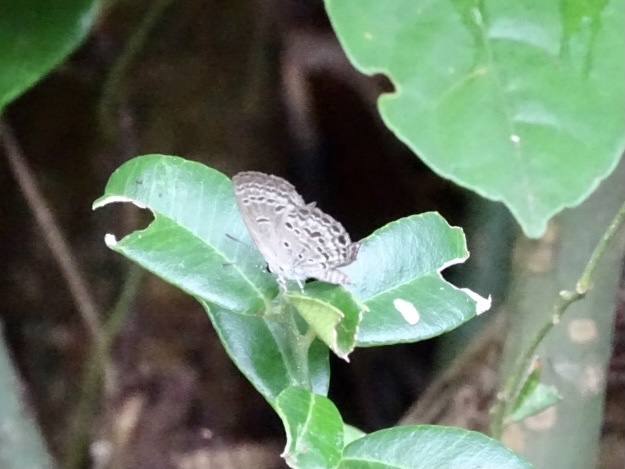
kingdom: Animalia
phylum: Arthropoda
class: Insecta
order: Lepidoptera
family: Lycaenidae
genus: Chilades
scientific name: Chilades laius
